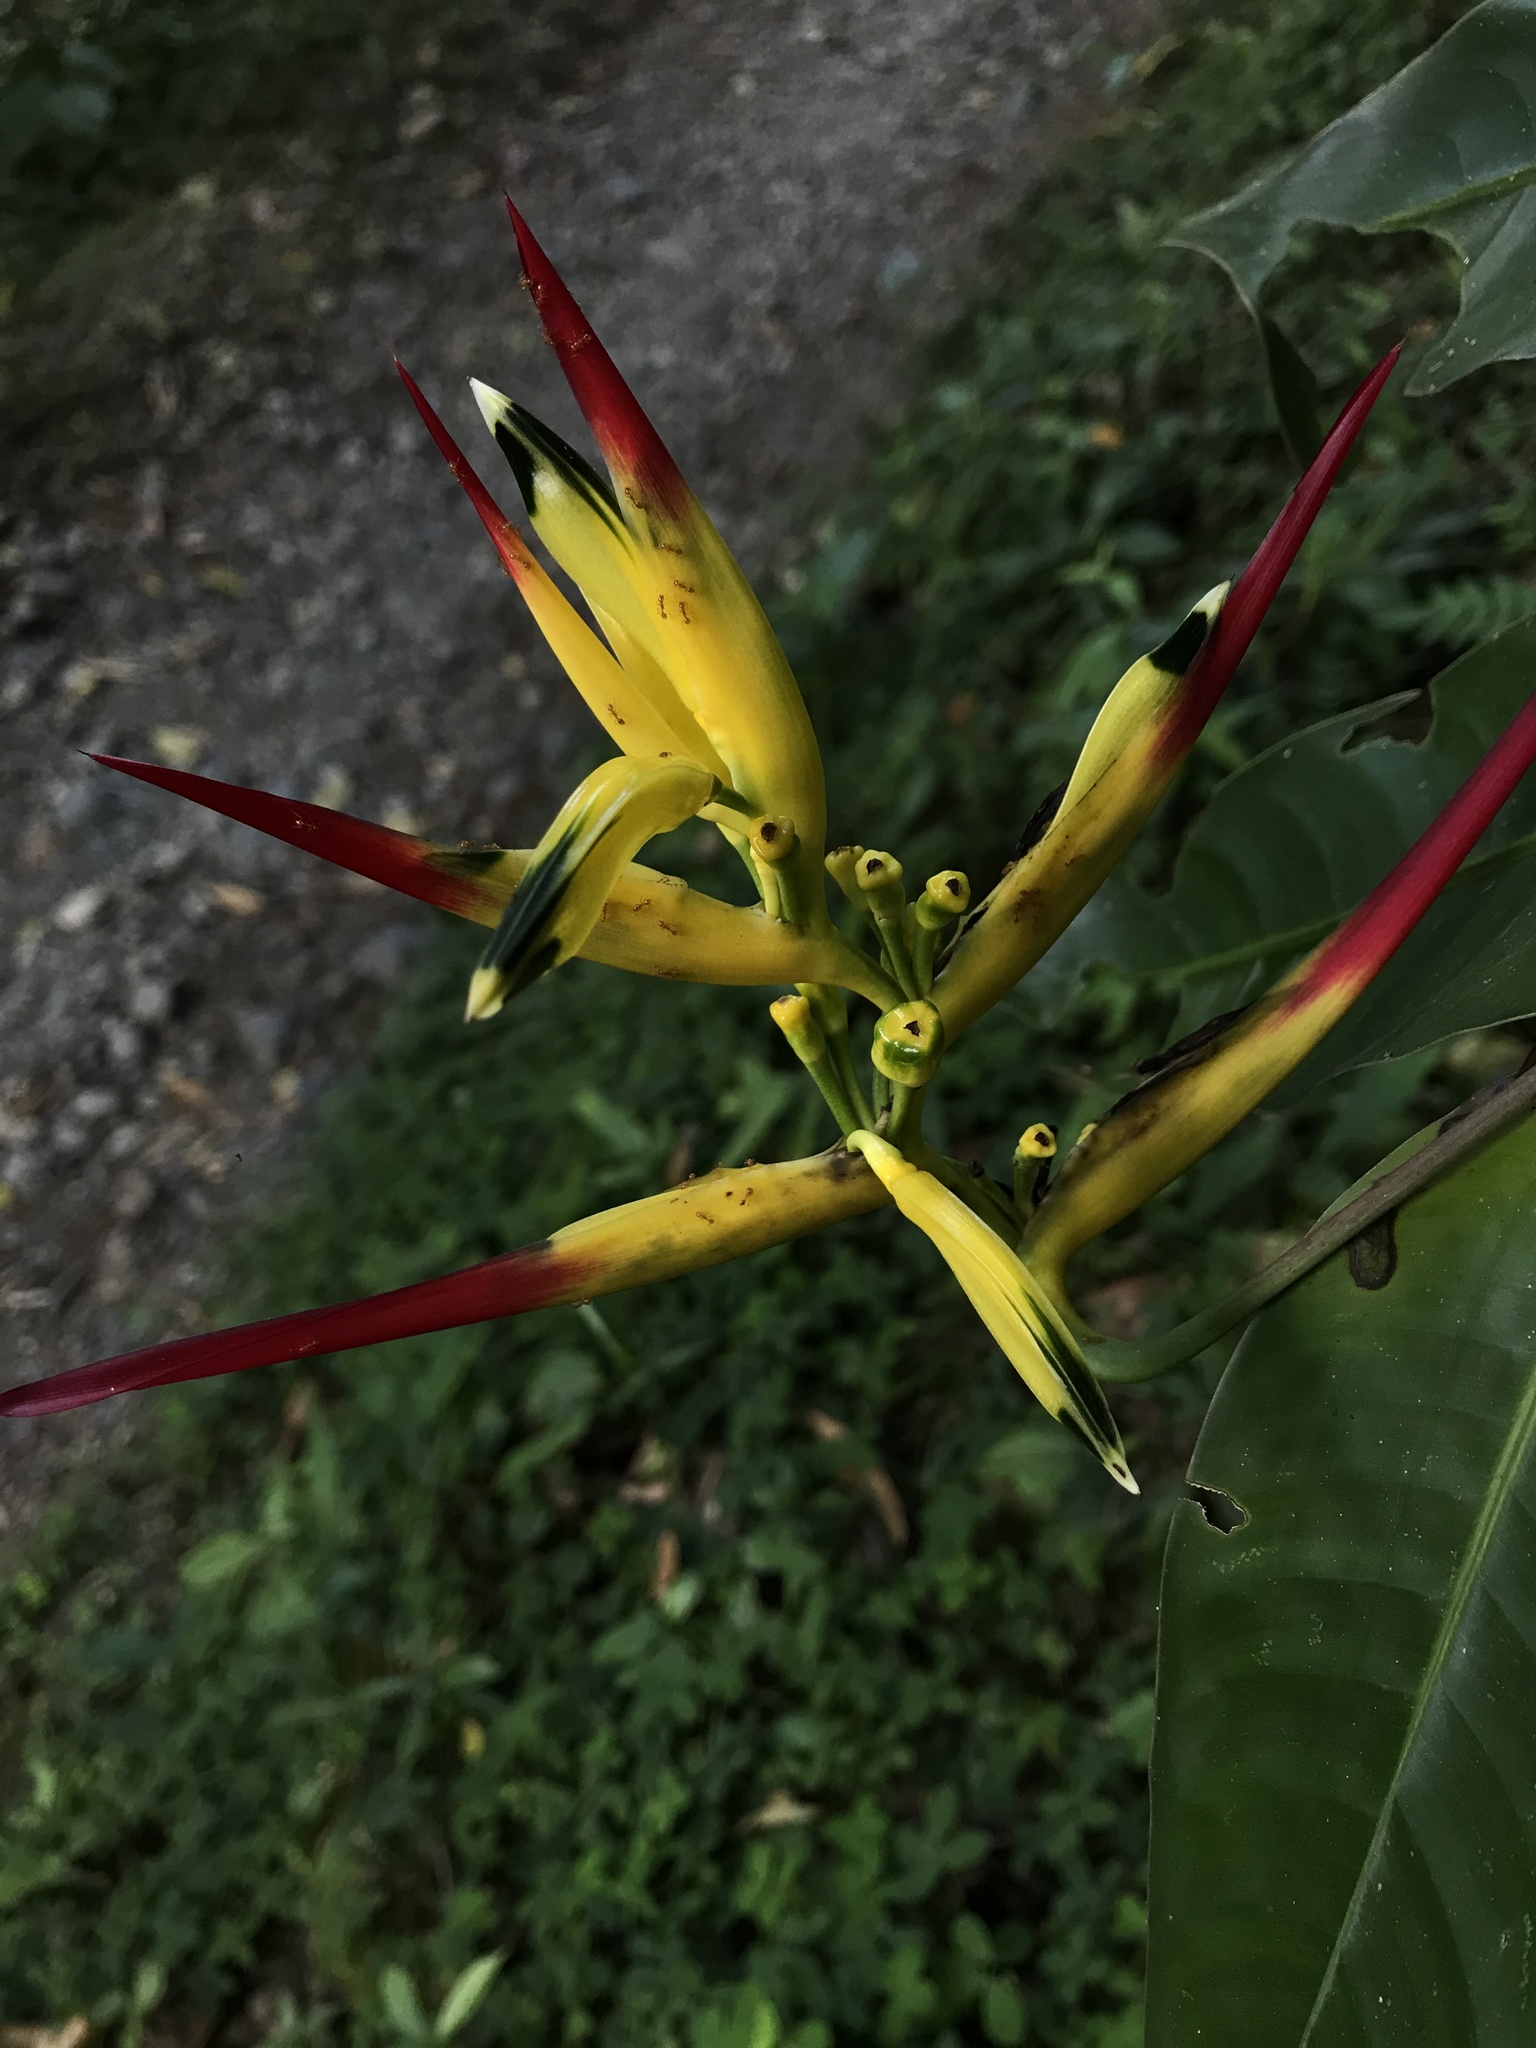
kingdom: Plantae
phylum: Tracheophyta
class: Liliopsida
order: Zingiberales
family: Heliconiaceae
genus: Heliconia
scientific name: Heliconia hirsuta
